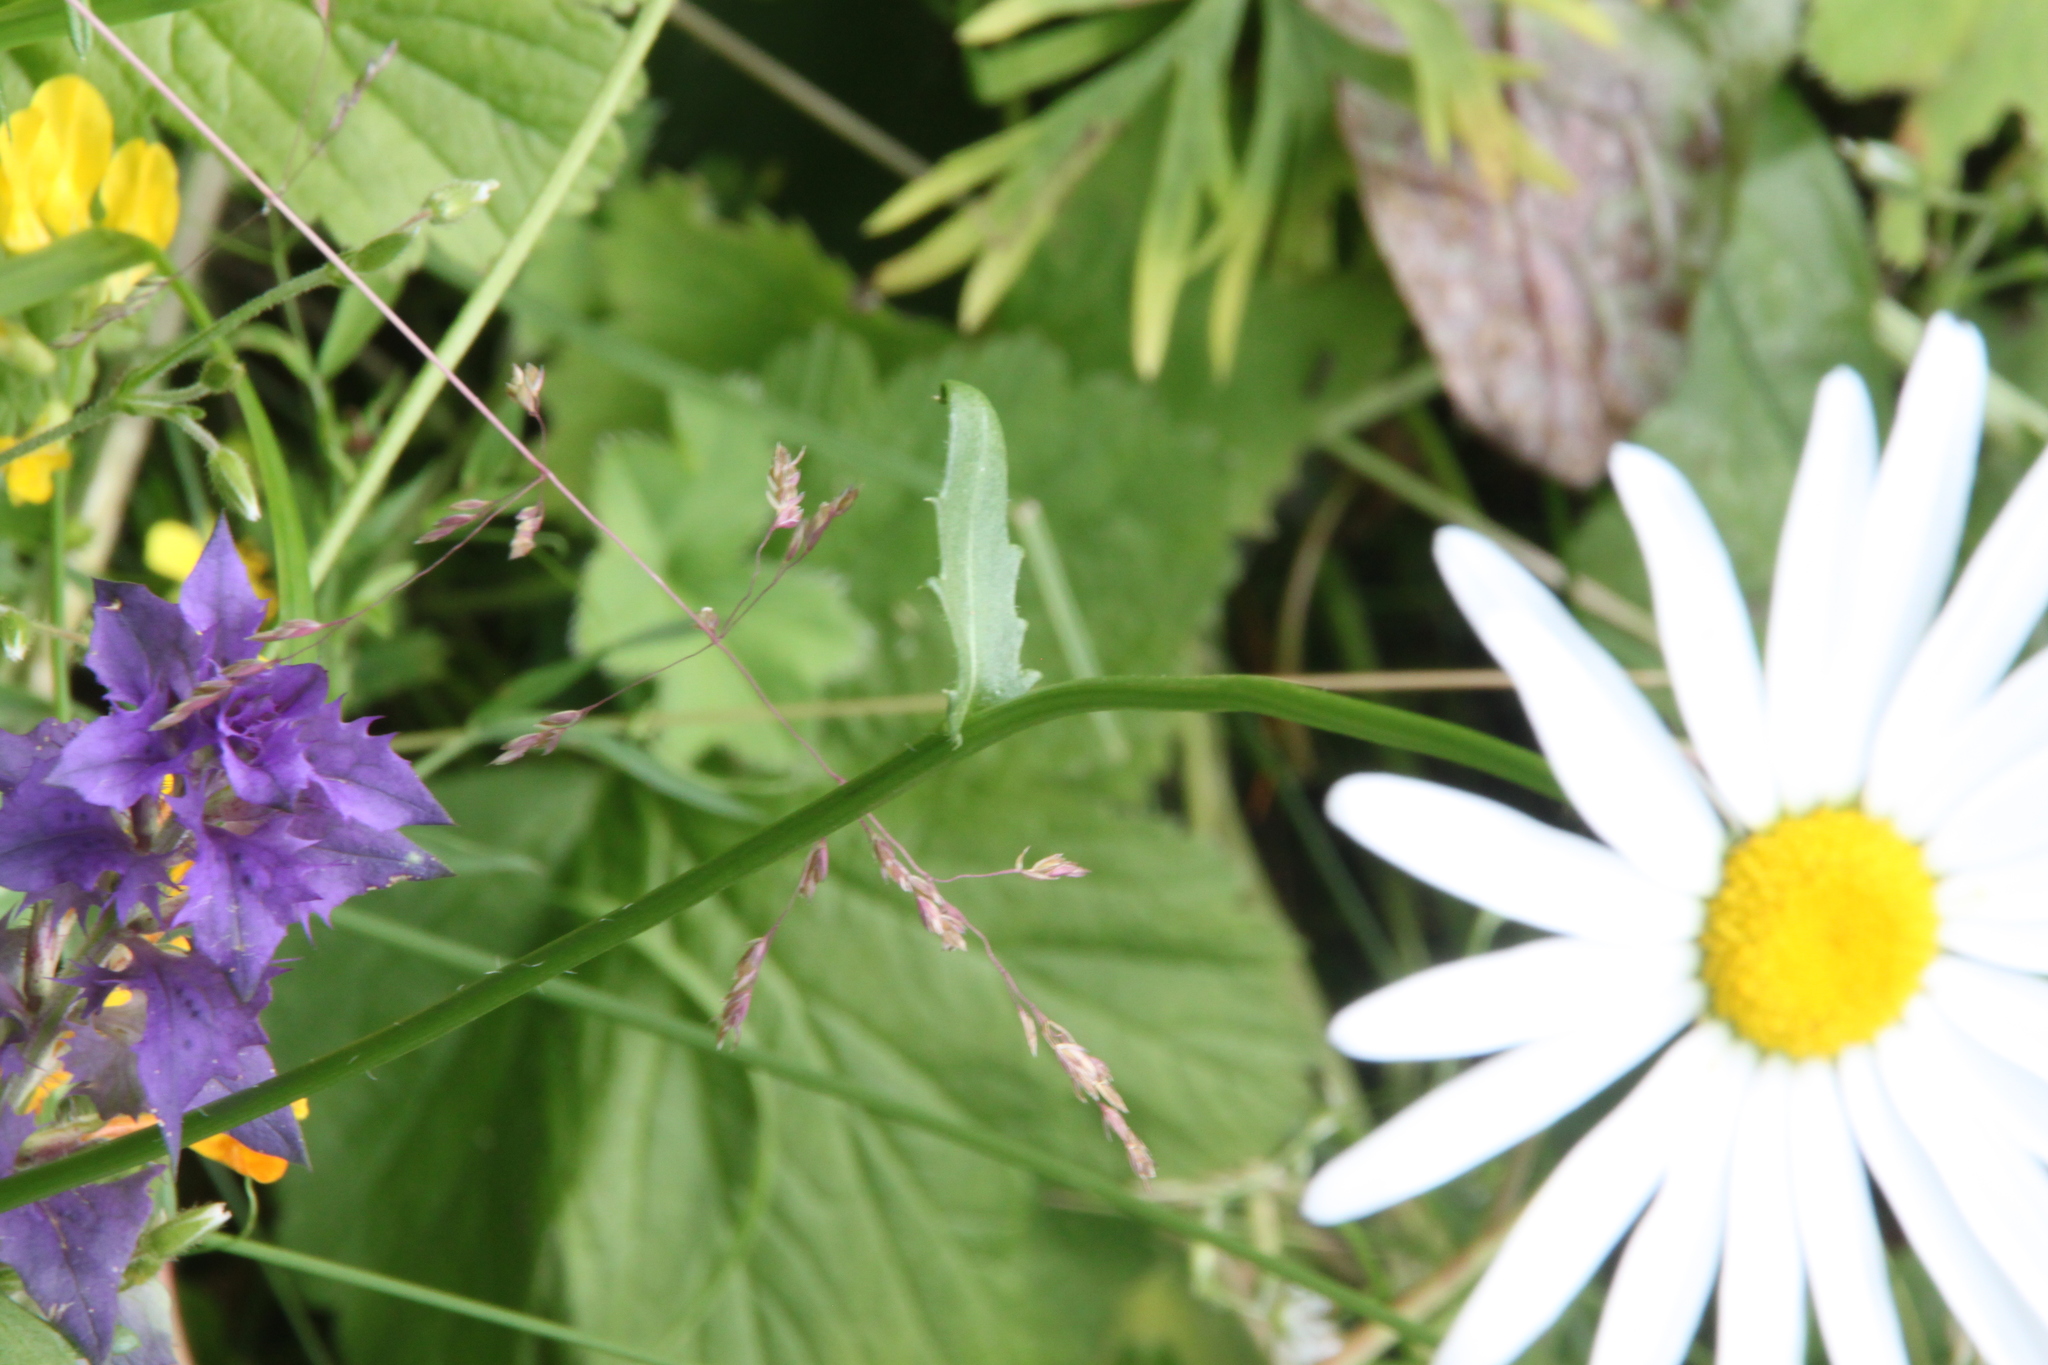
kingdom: Plantae
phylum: Tracheophyta
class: Magnoliopsida
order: Asterales
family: Asteraceae
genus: Leucanthemum
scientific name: Leucanthemum vulgare
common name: Oxeye daisy
